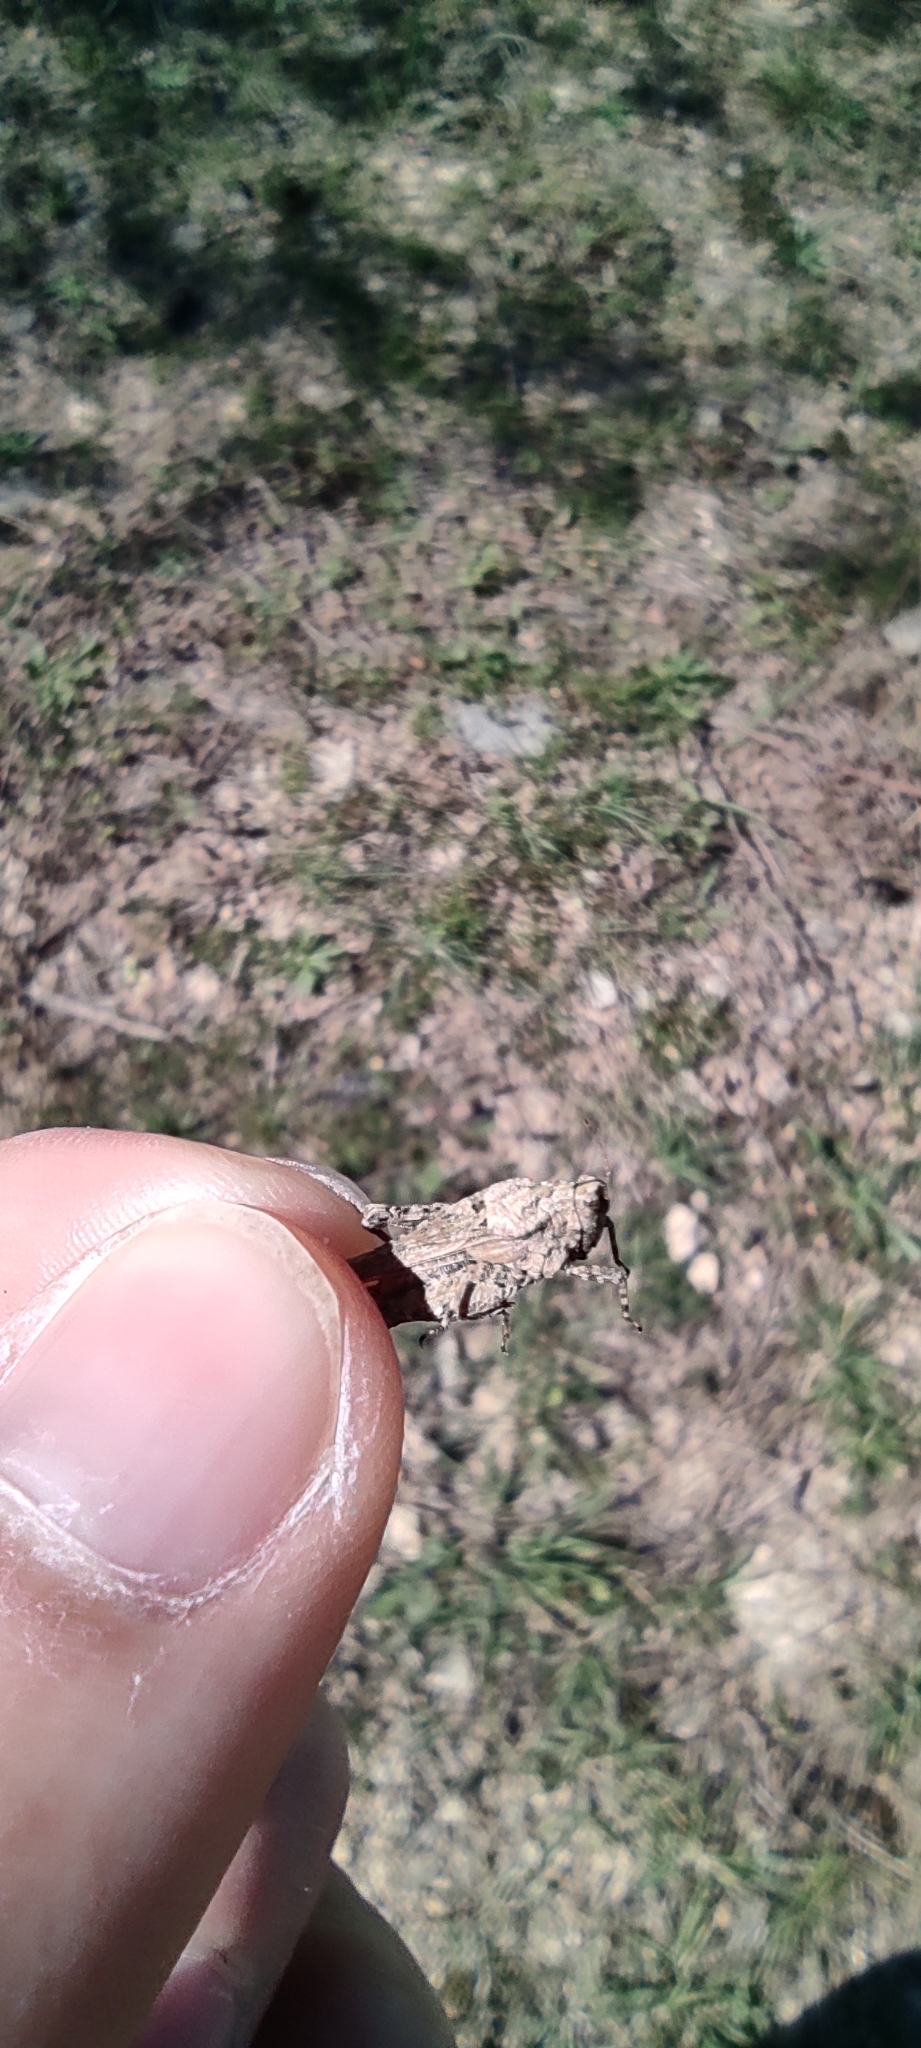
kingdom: Animalia
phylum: Arthropoda
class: Insecta
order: Orthoptera
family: Tetrigidae
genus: Paratettix
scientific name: Paratettix meridionalis
